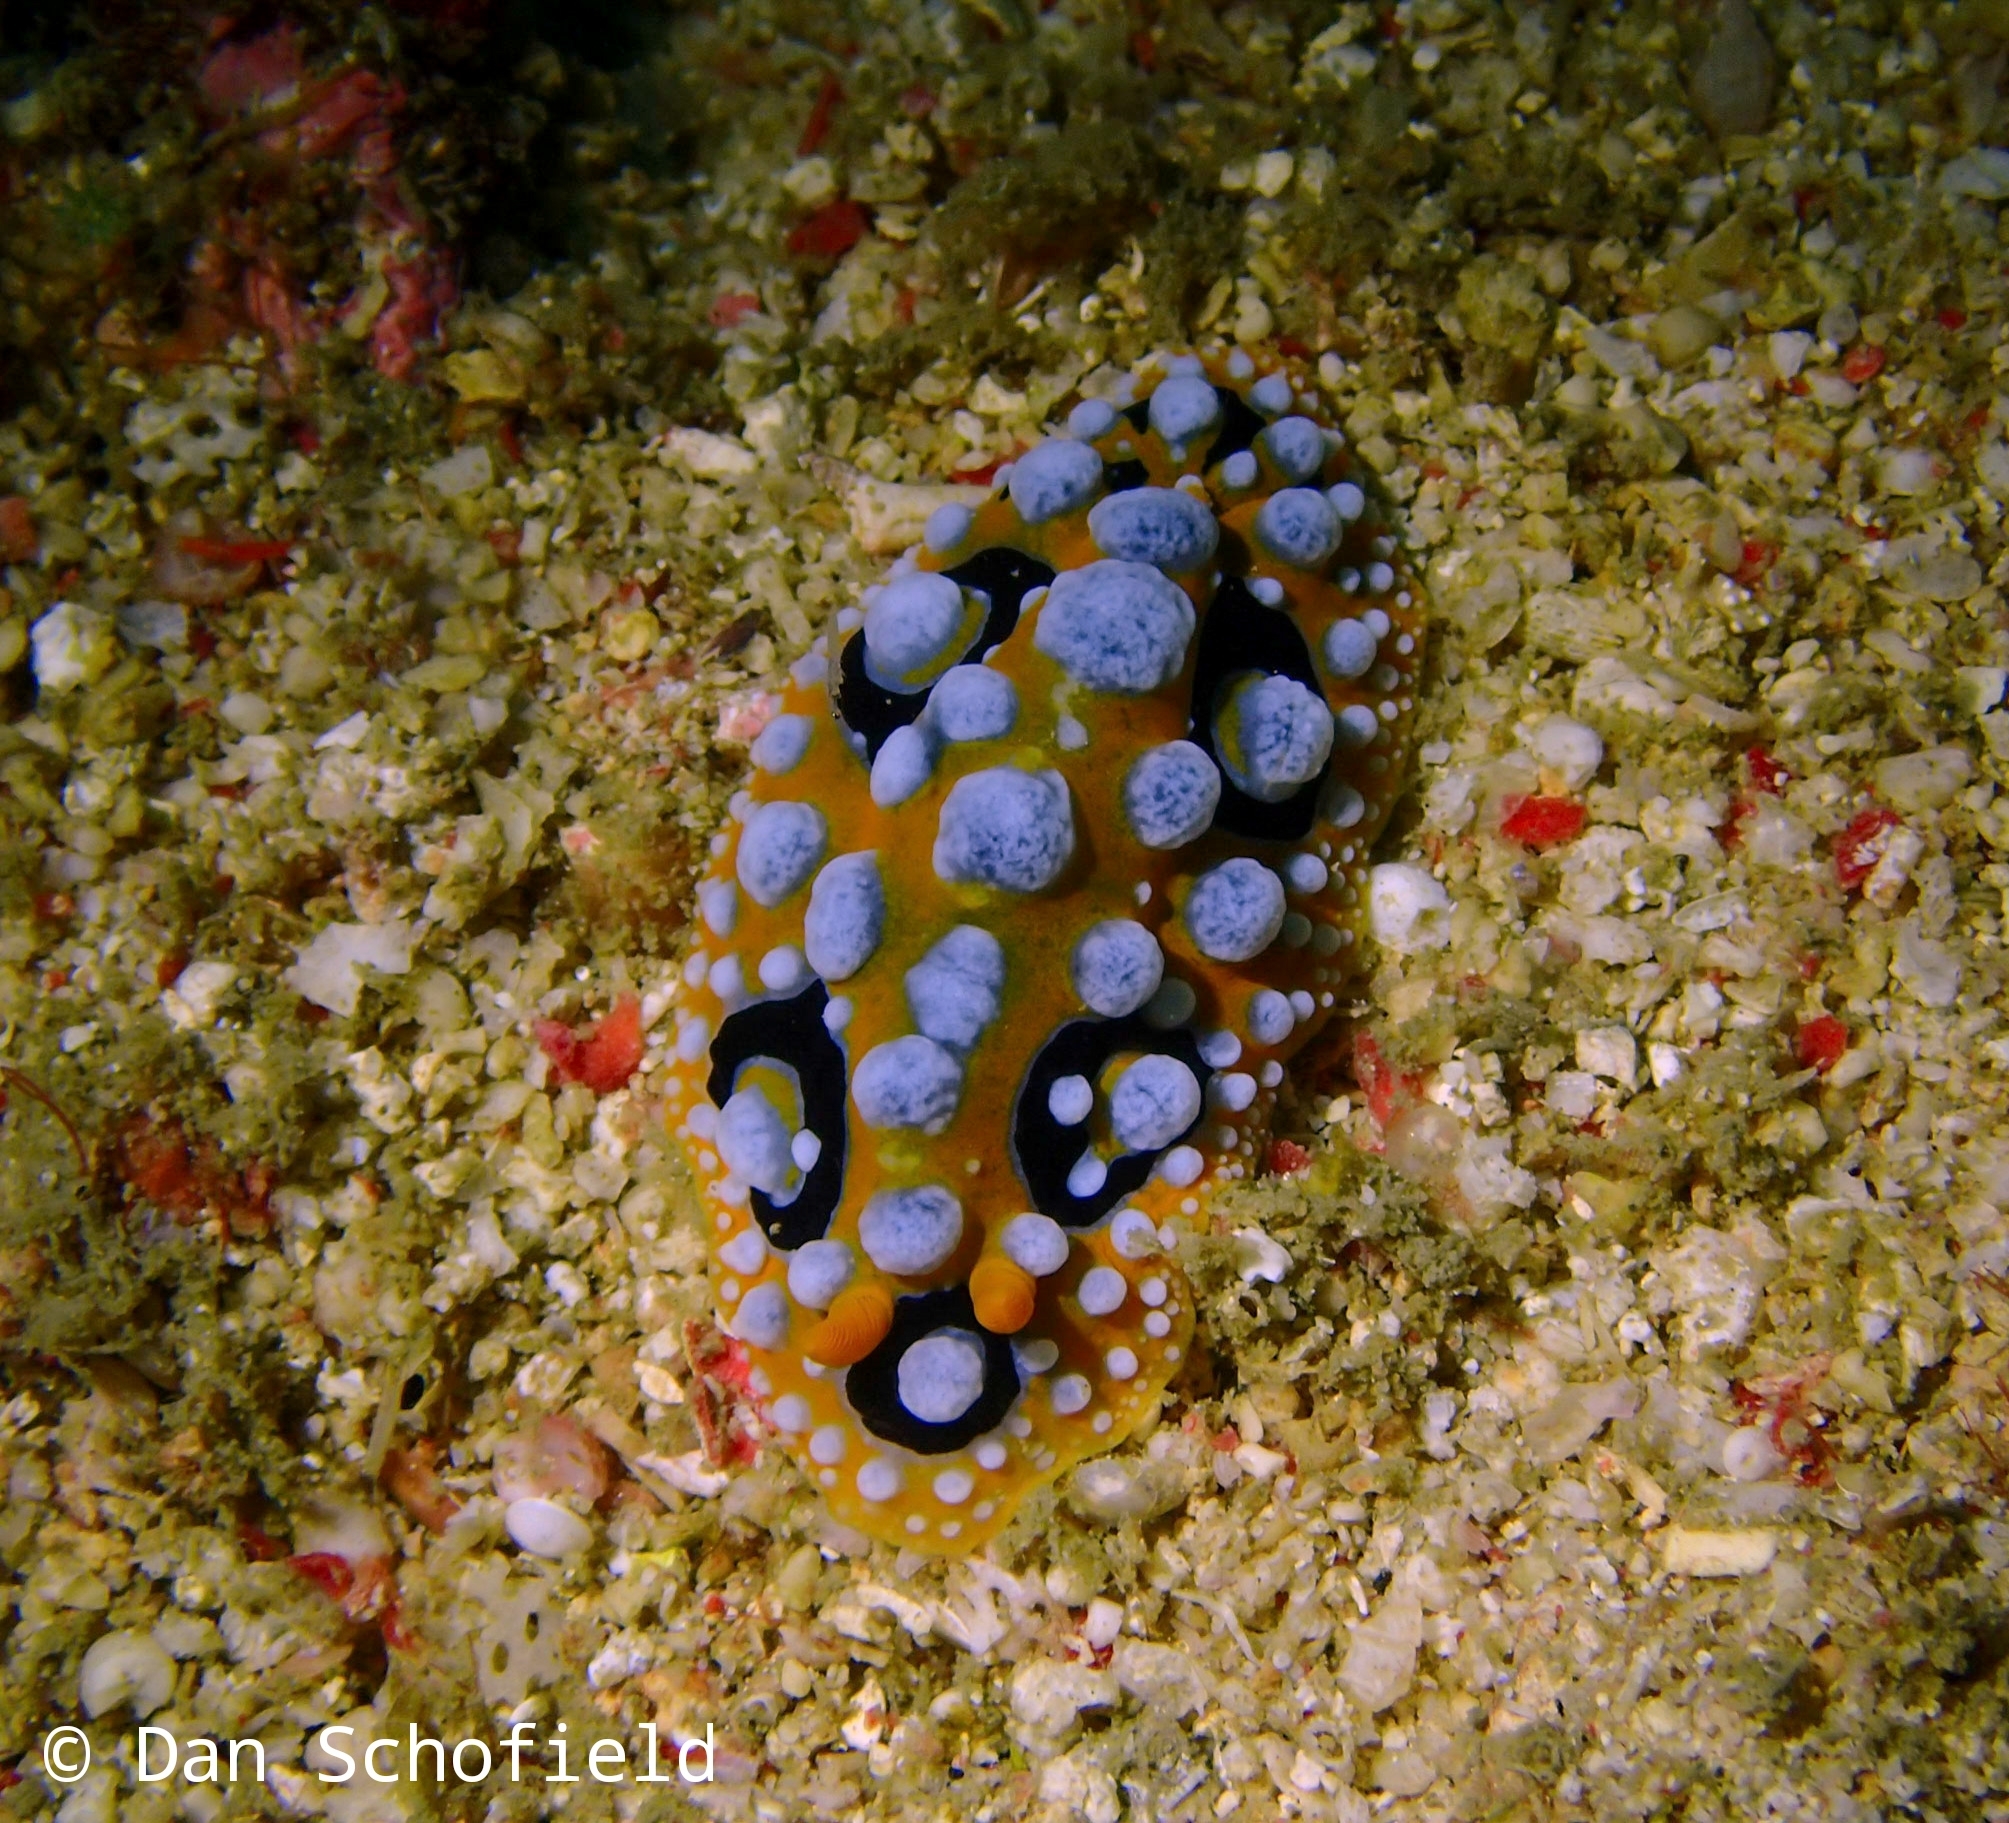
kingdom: Animalia
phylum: Mollusca
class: Gastropoda
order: Nudibranchia
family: Phyllidiidae
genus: Phyllidia
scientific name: Phyllidia ocellata
